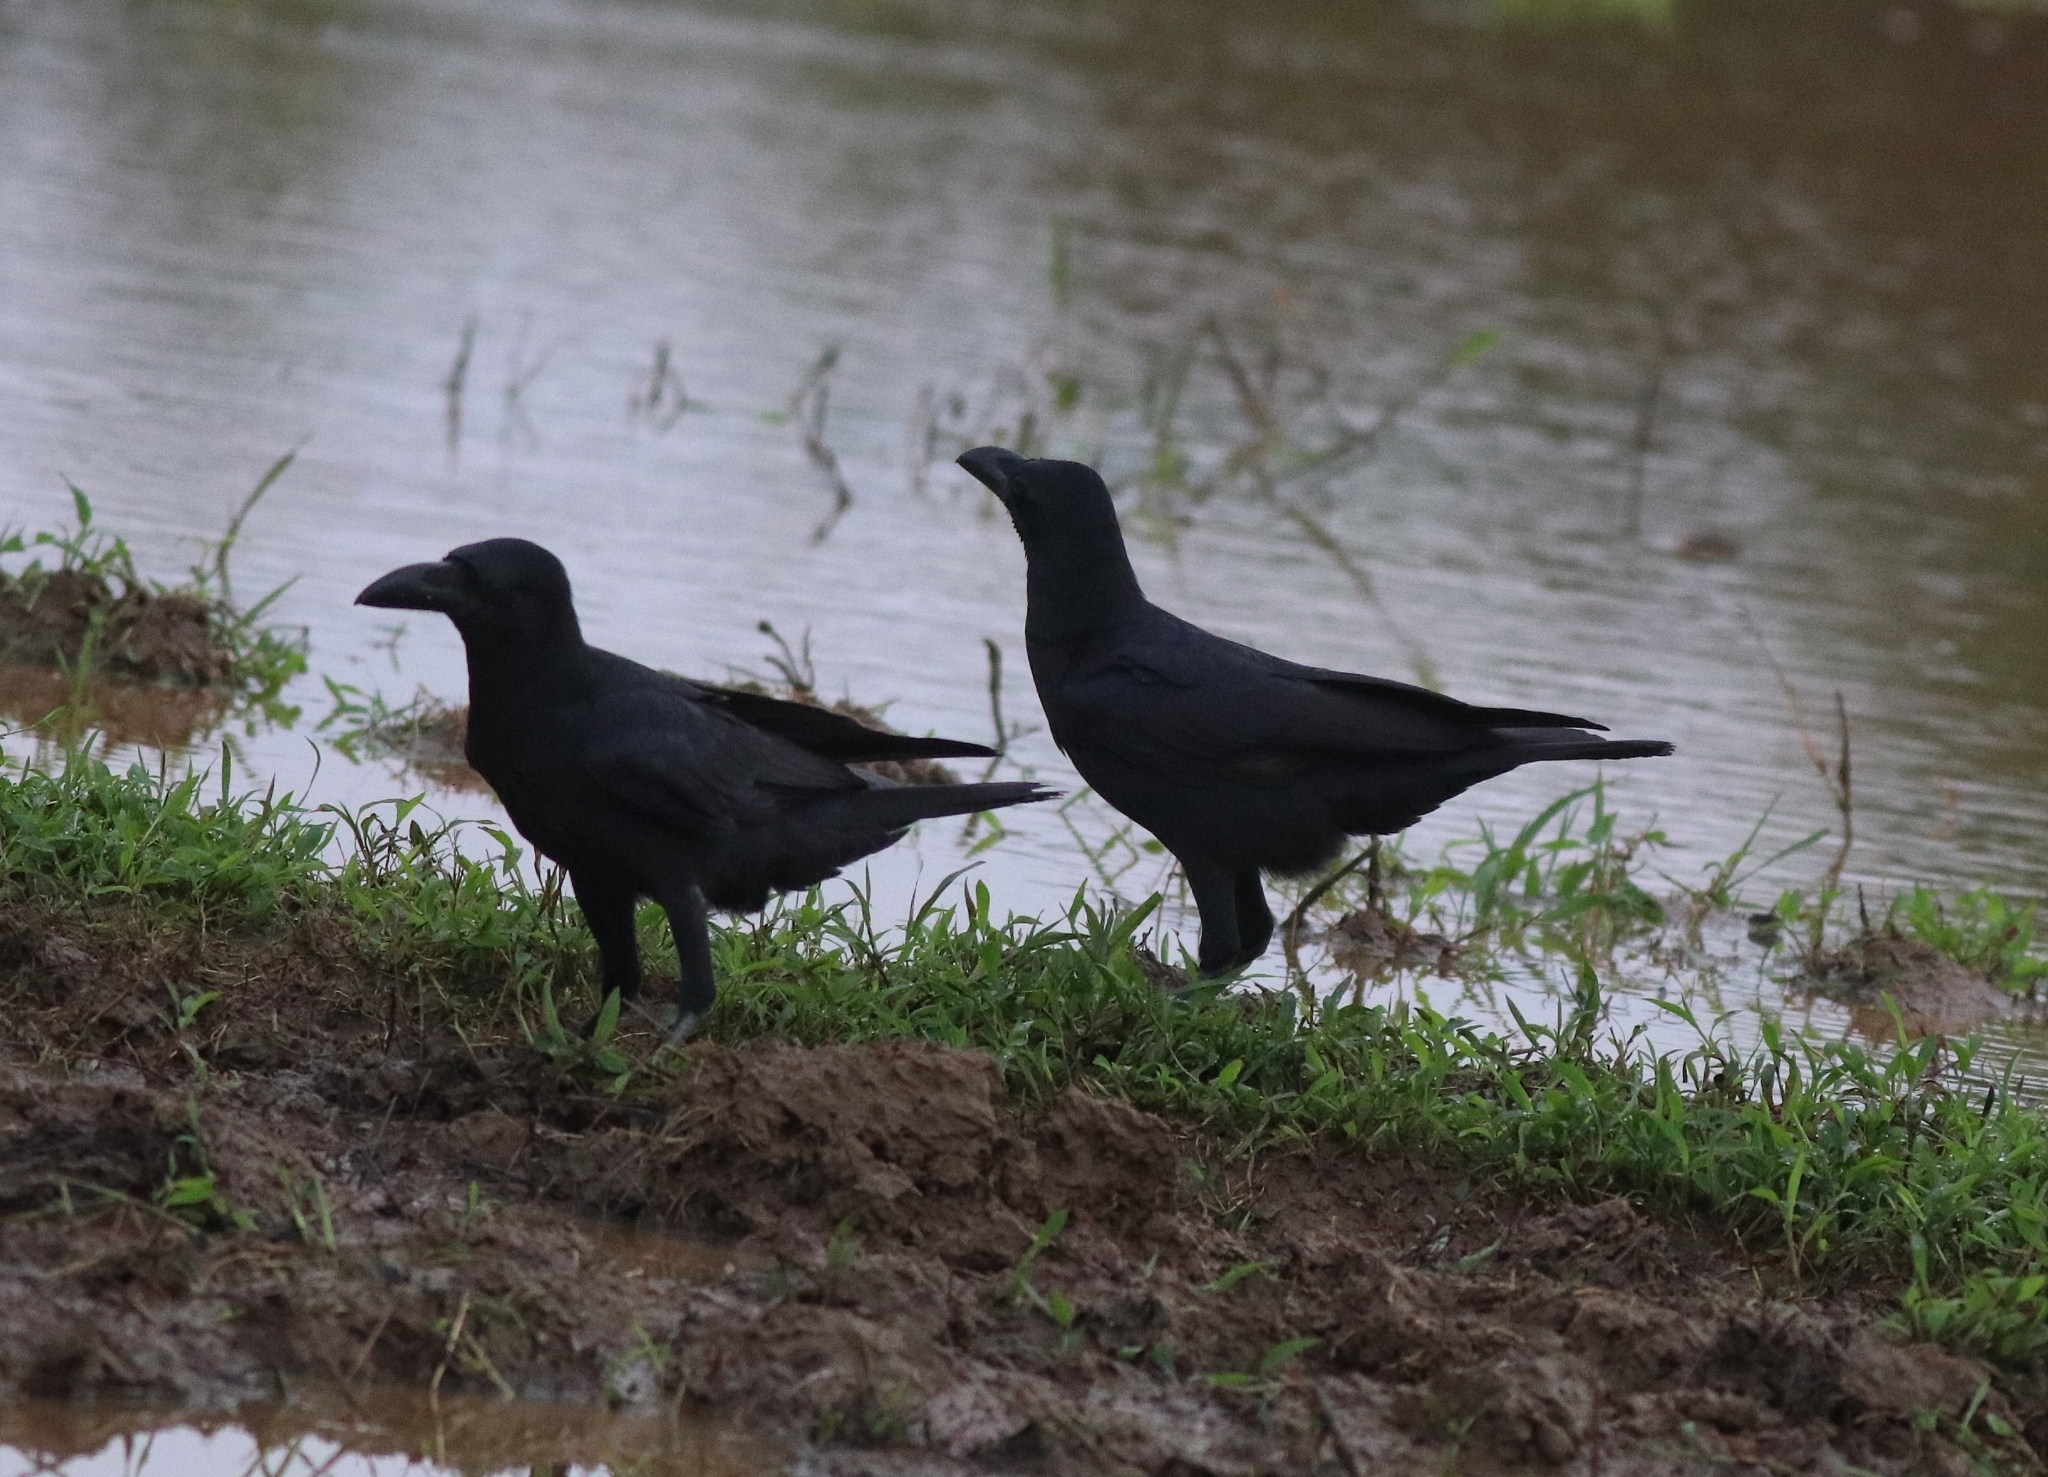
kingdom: Animalia
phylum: Chordata
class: Aves
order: Passeriformes
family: Corvidae
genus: Corvus
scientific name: Corvus macrorhynchos
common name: Large-billed crow
